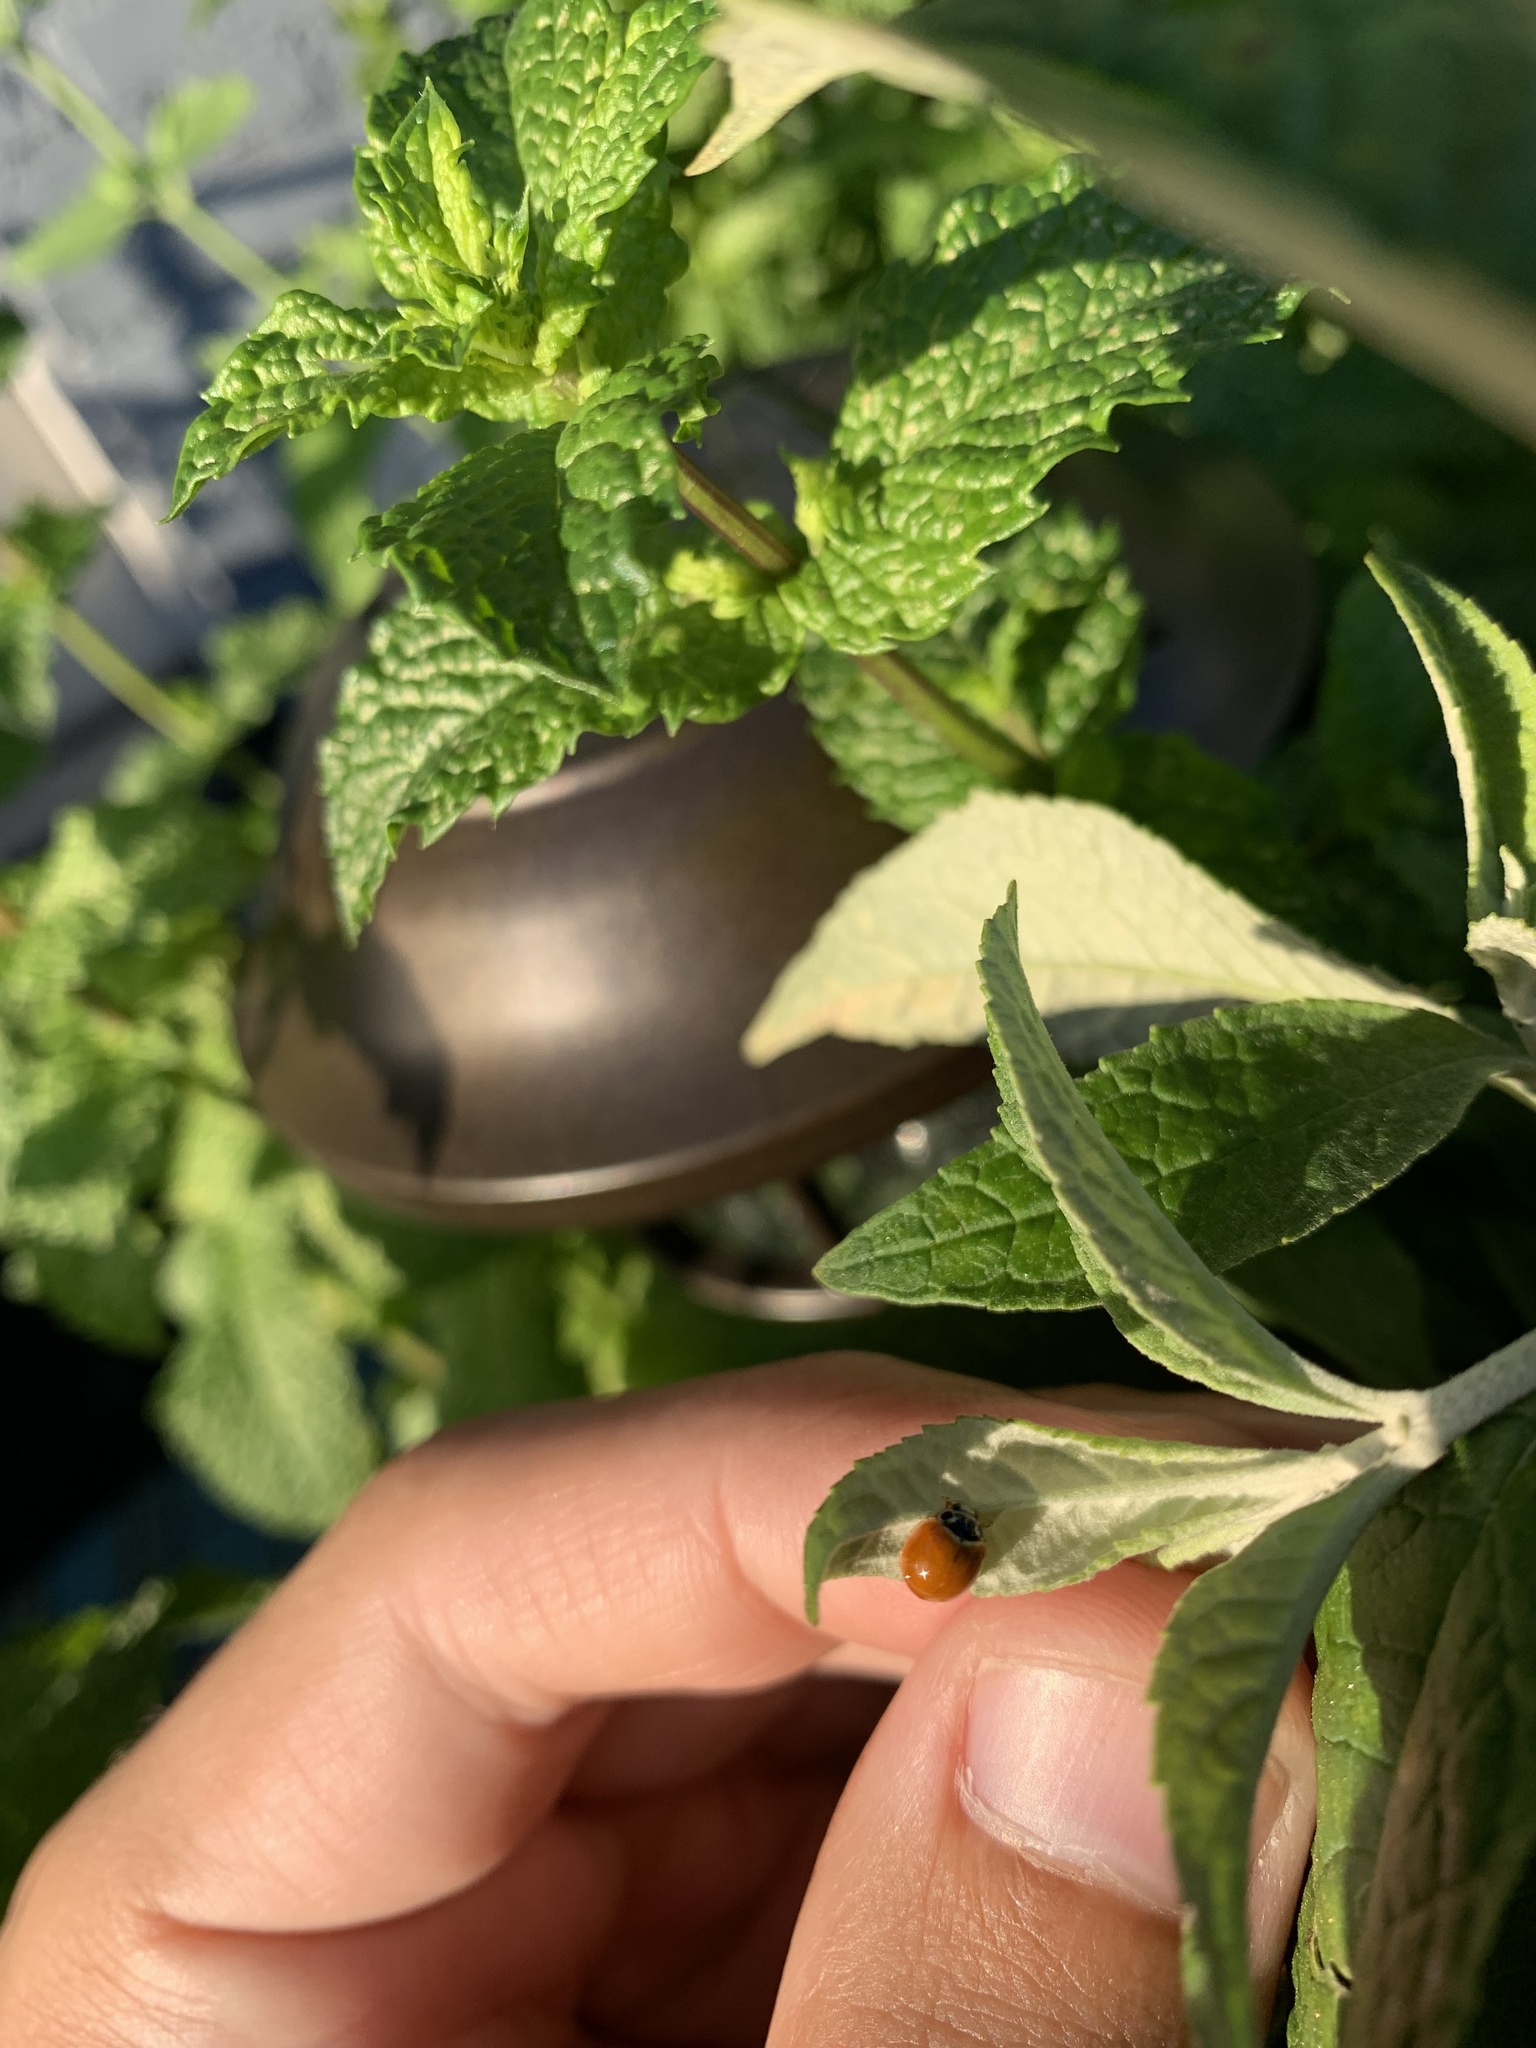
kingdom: Animalia
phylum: Arthropoda
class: Insecta
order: Coleoptera
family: Coccinellidae
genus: Cycloneda
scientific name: Cycloneda munda
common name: Polished lady beetle
